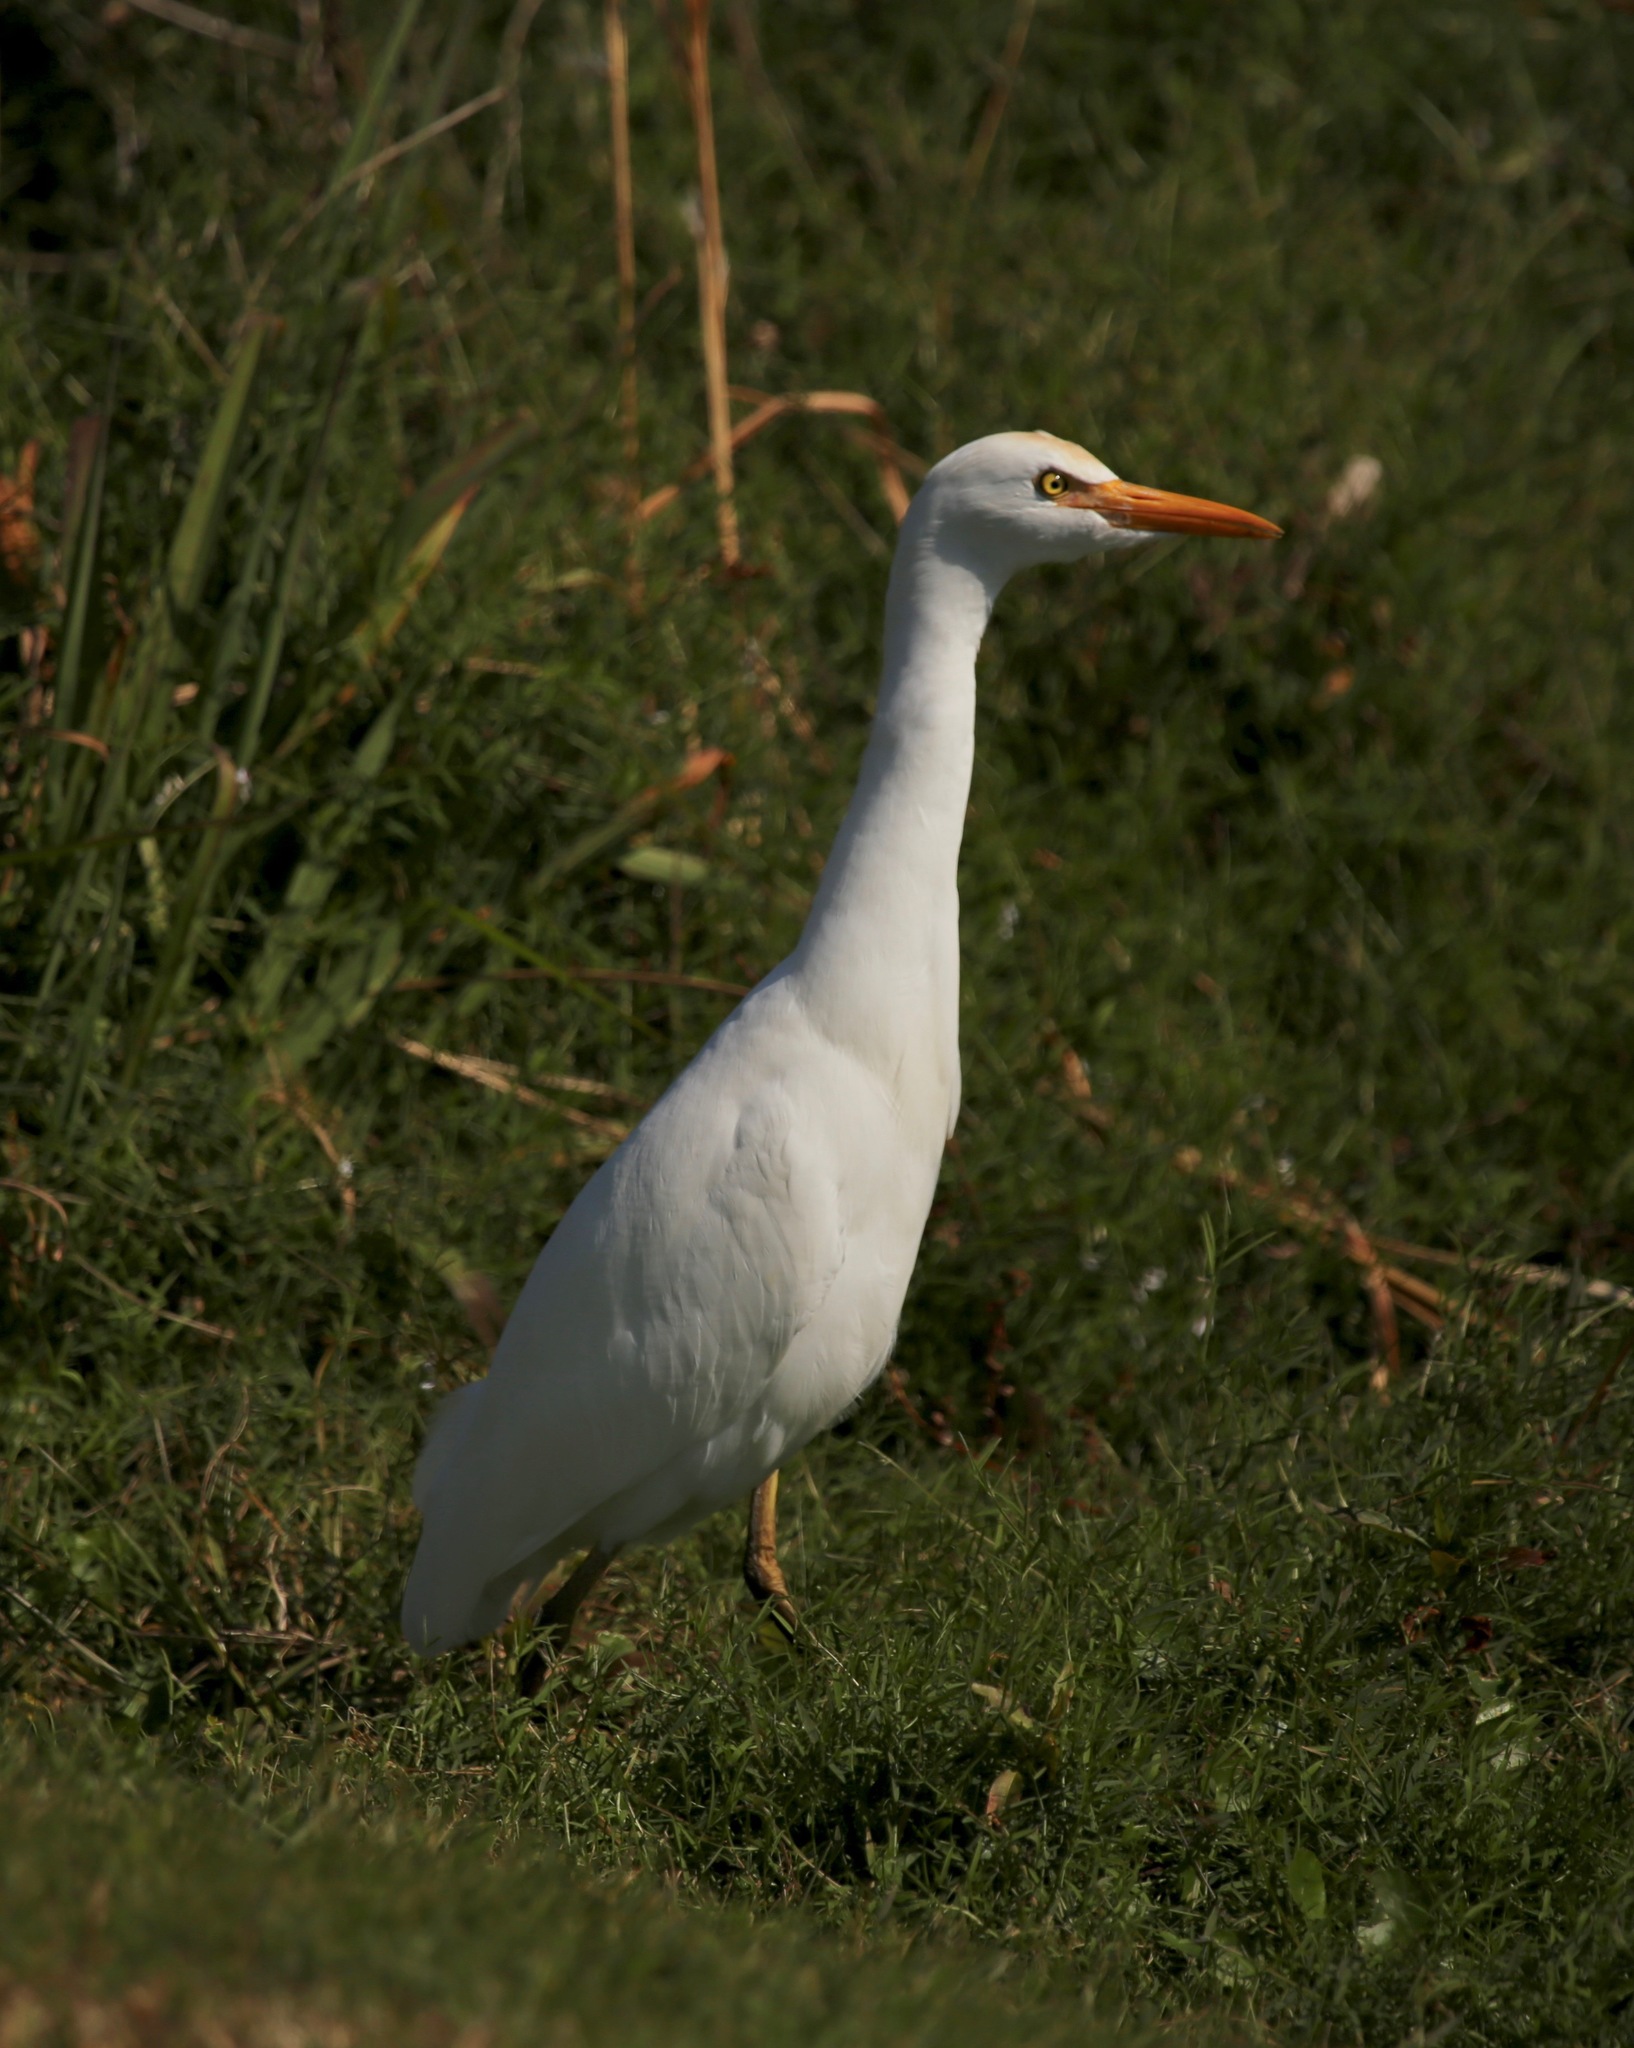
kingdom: Animalia
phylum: Chordata
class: Aves
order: Pelecaniformes
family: Ardeidae
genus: Bubulcus
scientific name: Bubulcus ibis
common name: Cattle egret
